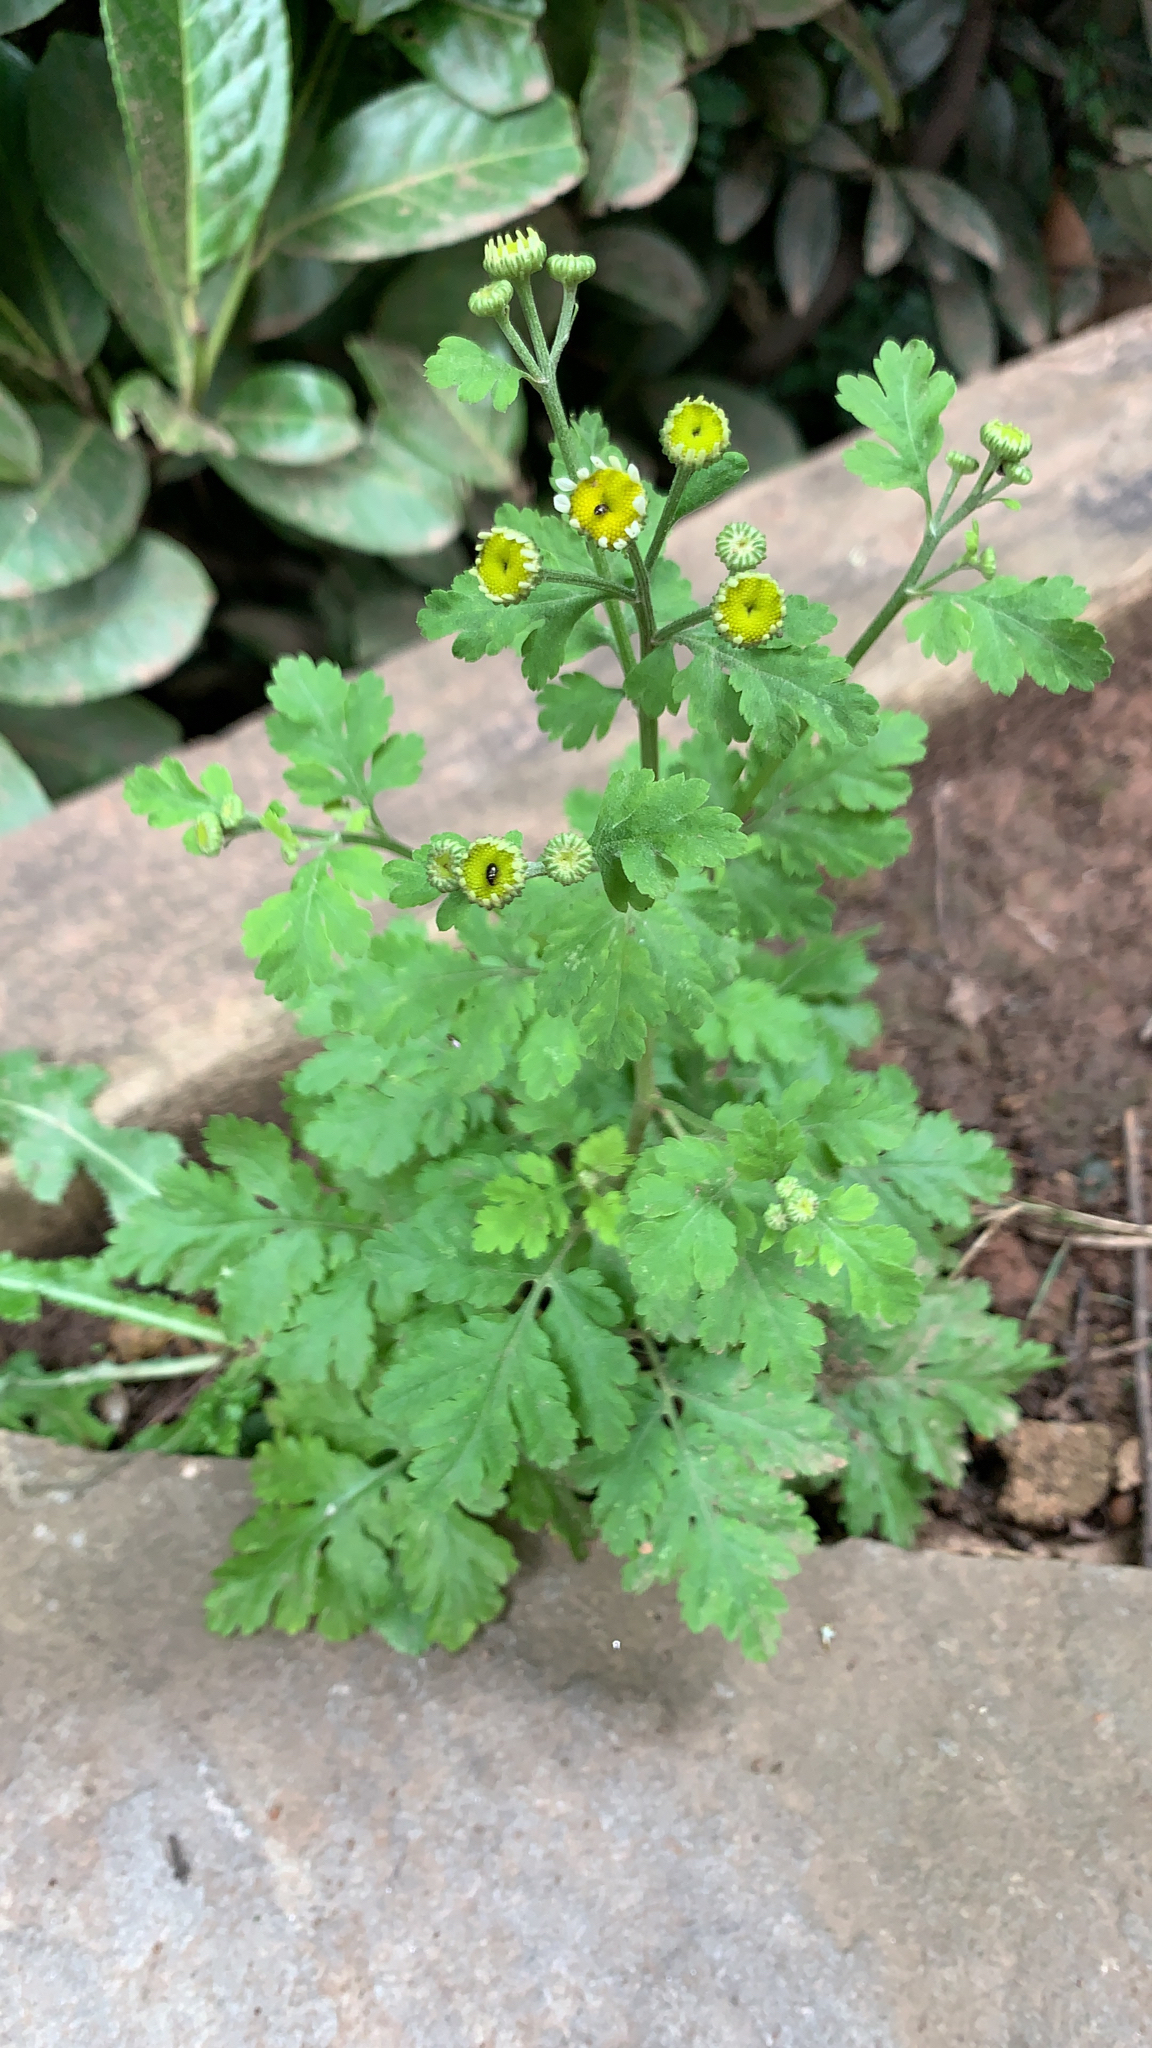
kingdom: Plantae
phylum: Tracheophyta
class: Magnoliopsida
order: Asterales
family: Asteraceae
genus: Tanacetum
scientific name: Tanacetum parthenium
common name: Feverfew
